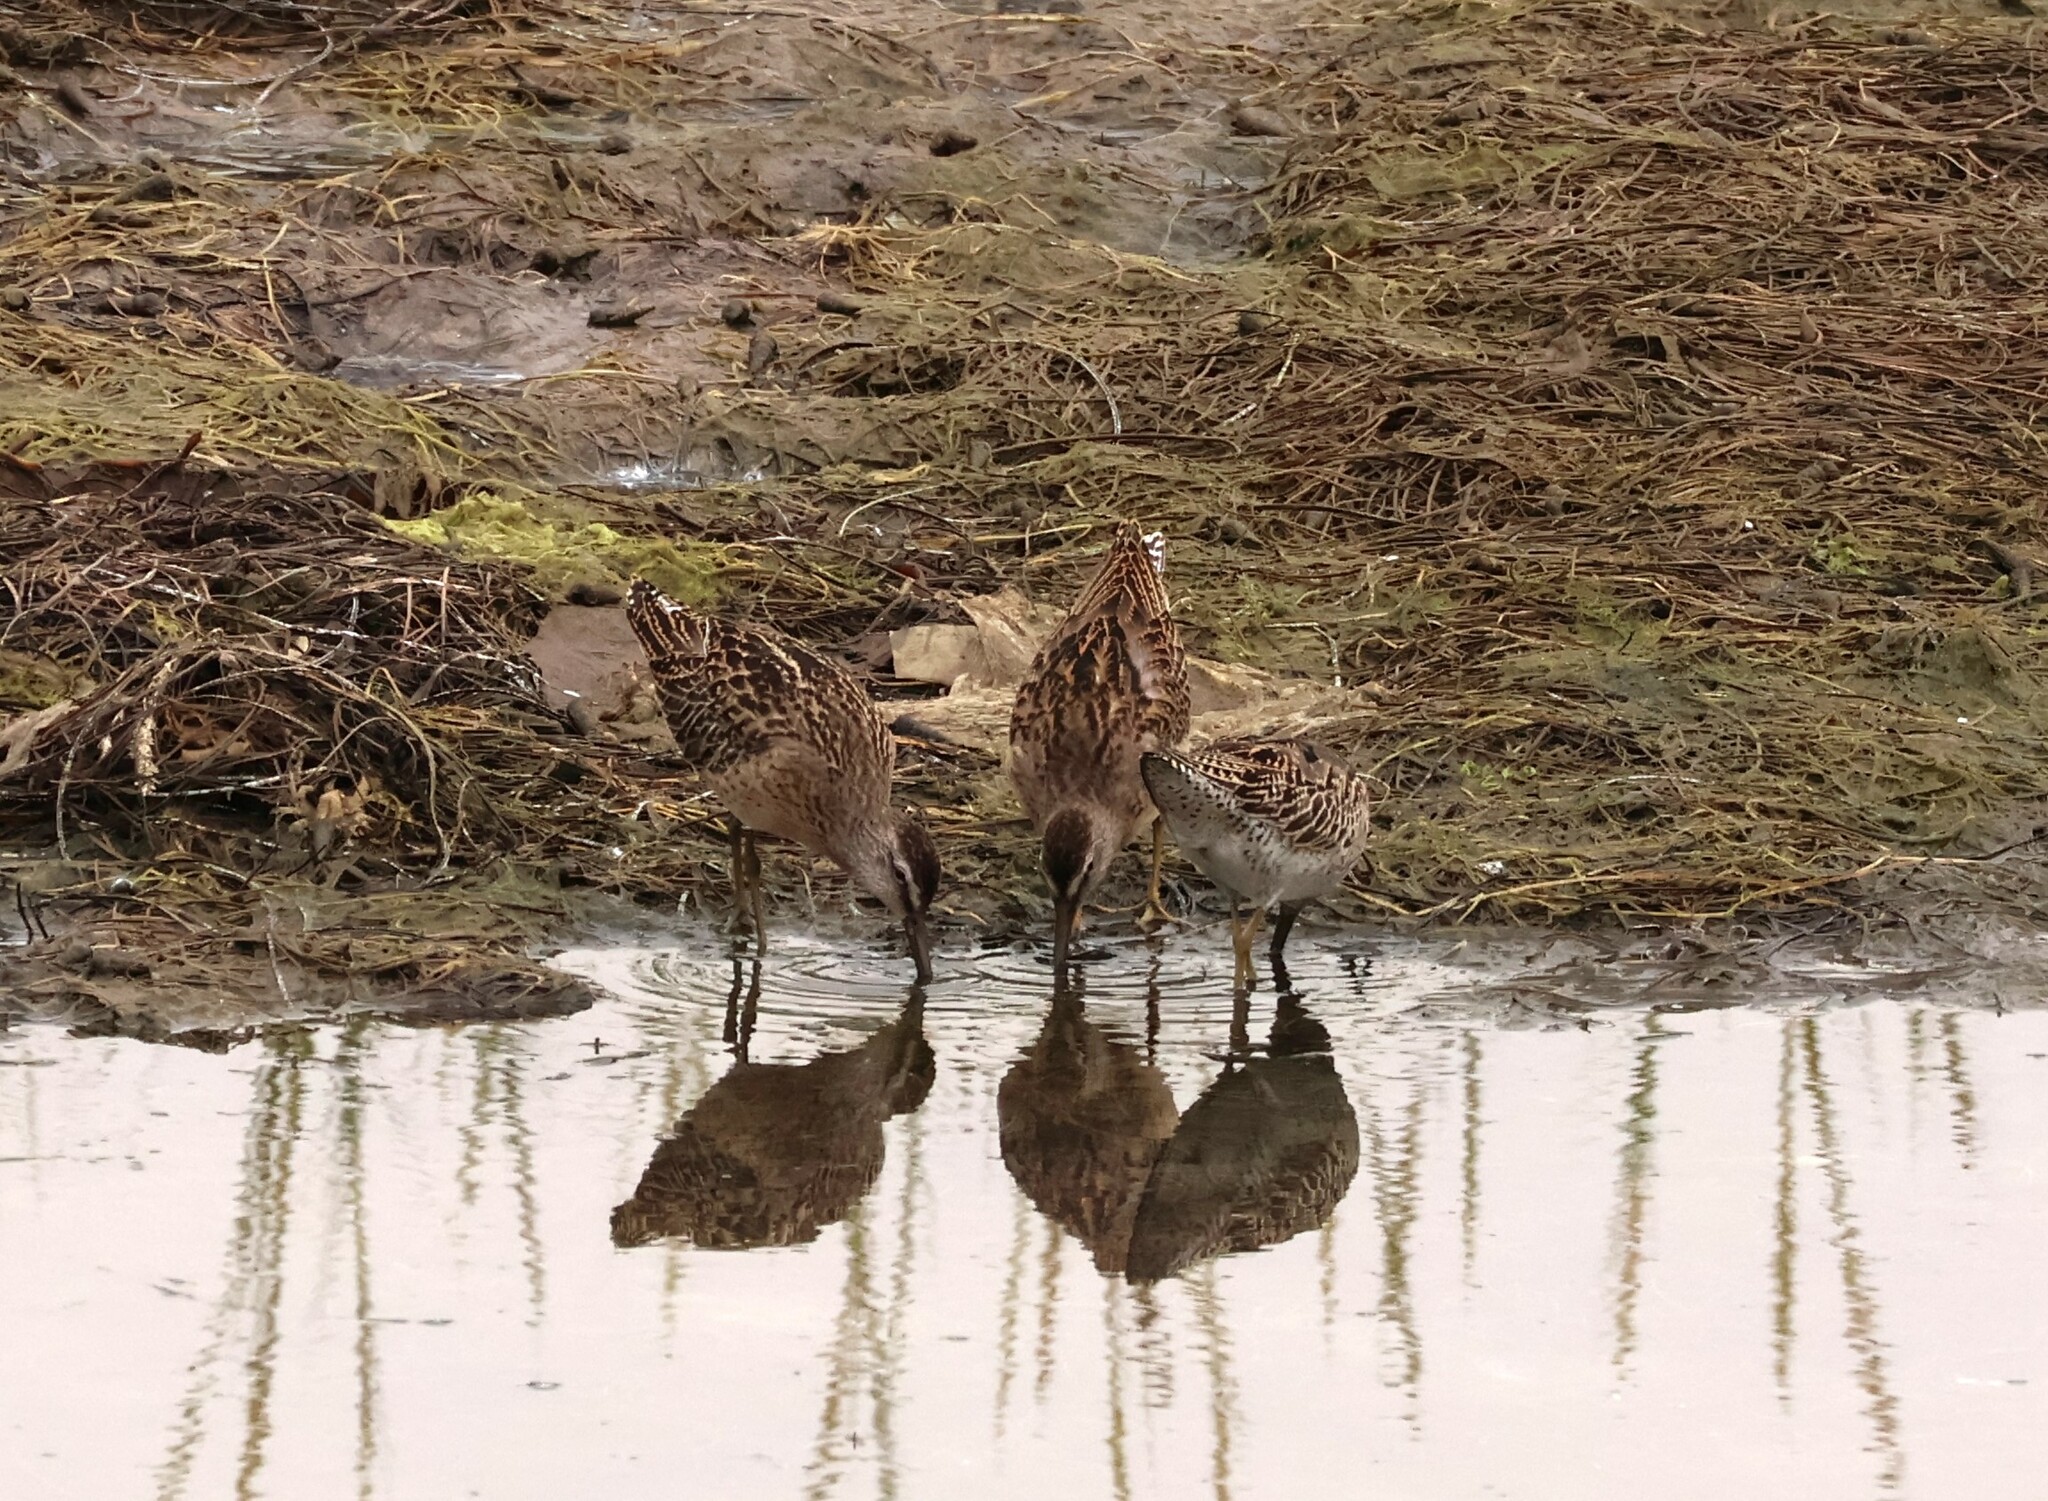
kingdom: Animalia
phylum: Chordata
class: Aves
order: Charadriiformes
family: Scolopacidae
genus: Limnodromus
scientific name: Limnodromus griseus
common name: Short-billed dowitcher
